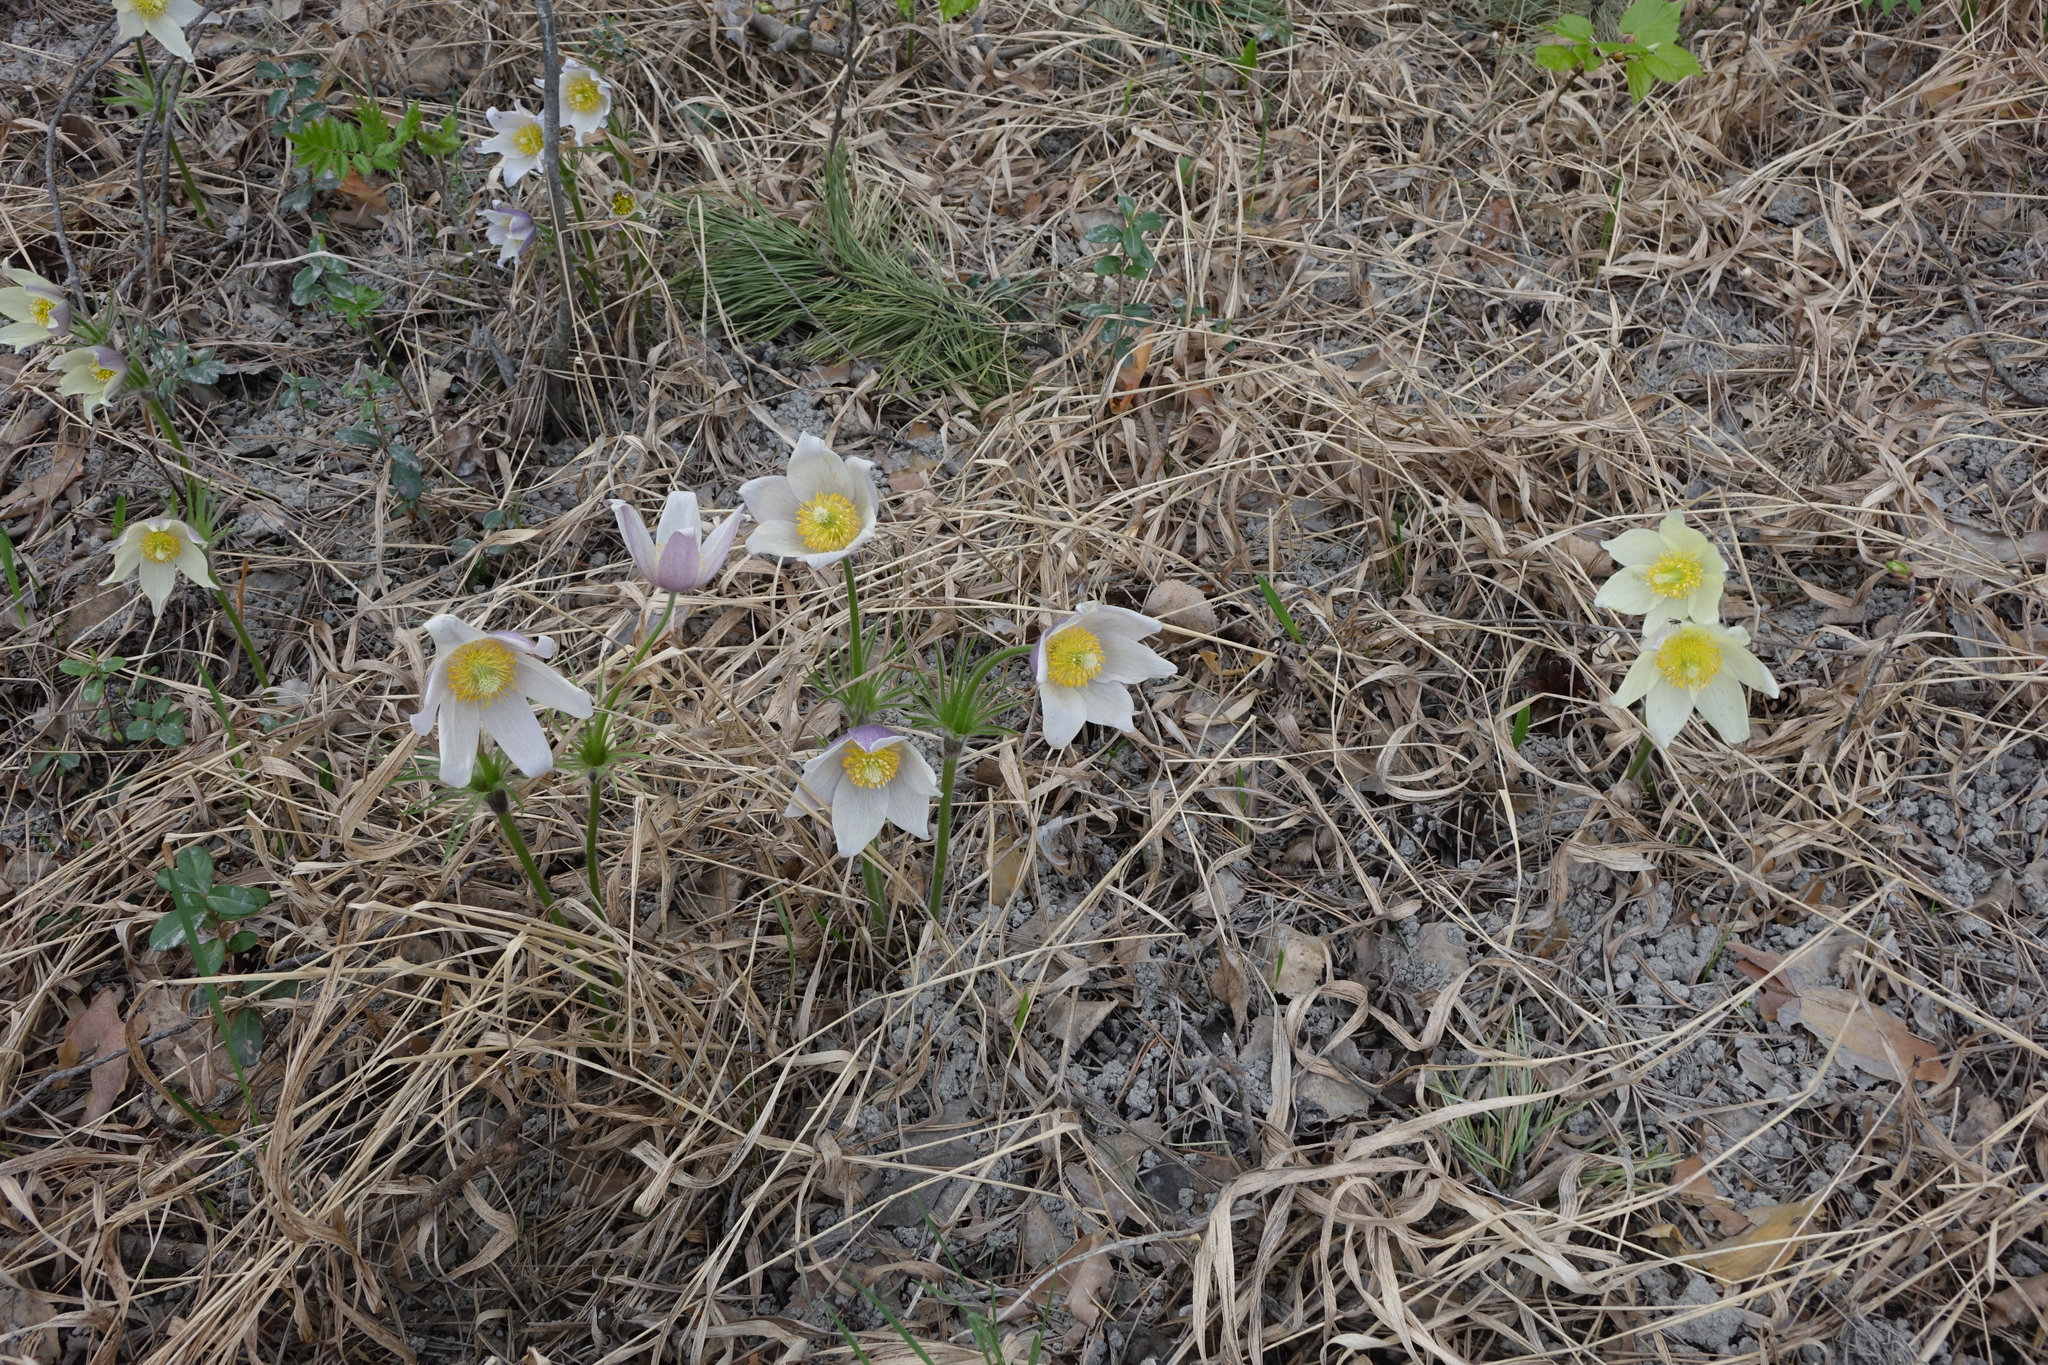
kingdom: Plantae
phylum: Tracheophyta
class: Magnoliopsida
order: Ranunculales
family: Ranunculaceae
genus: Pulsatilla
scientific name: Pulsatilla patens
